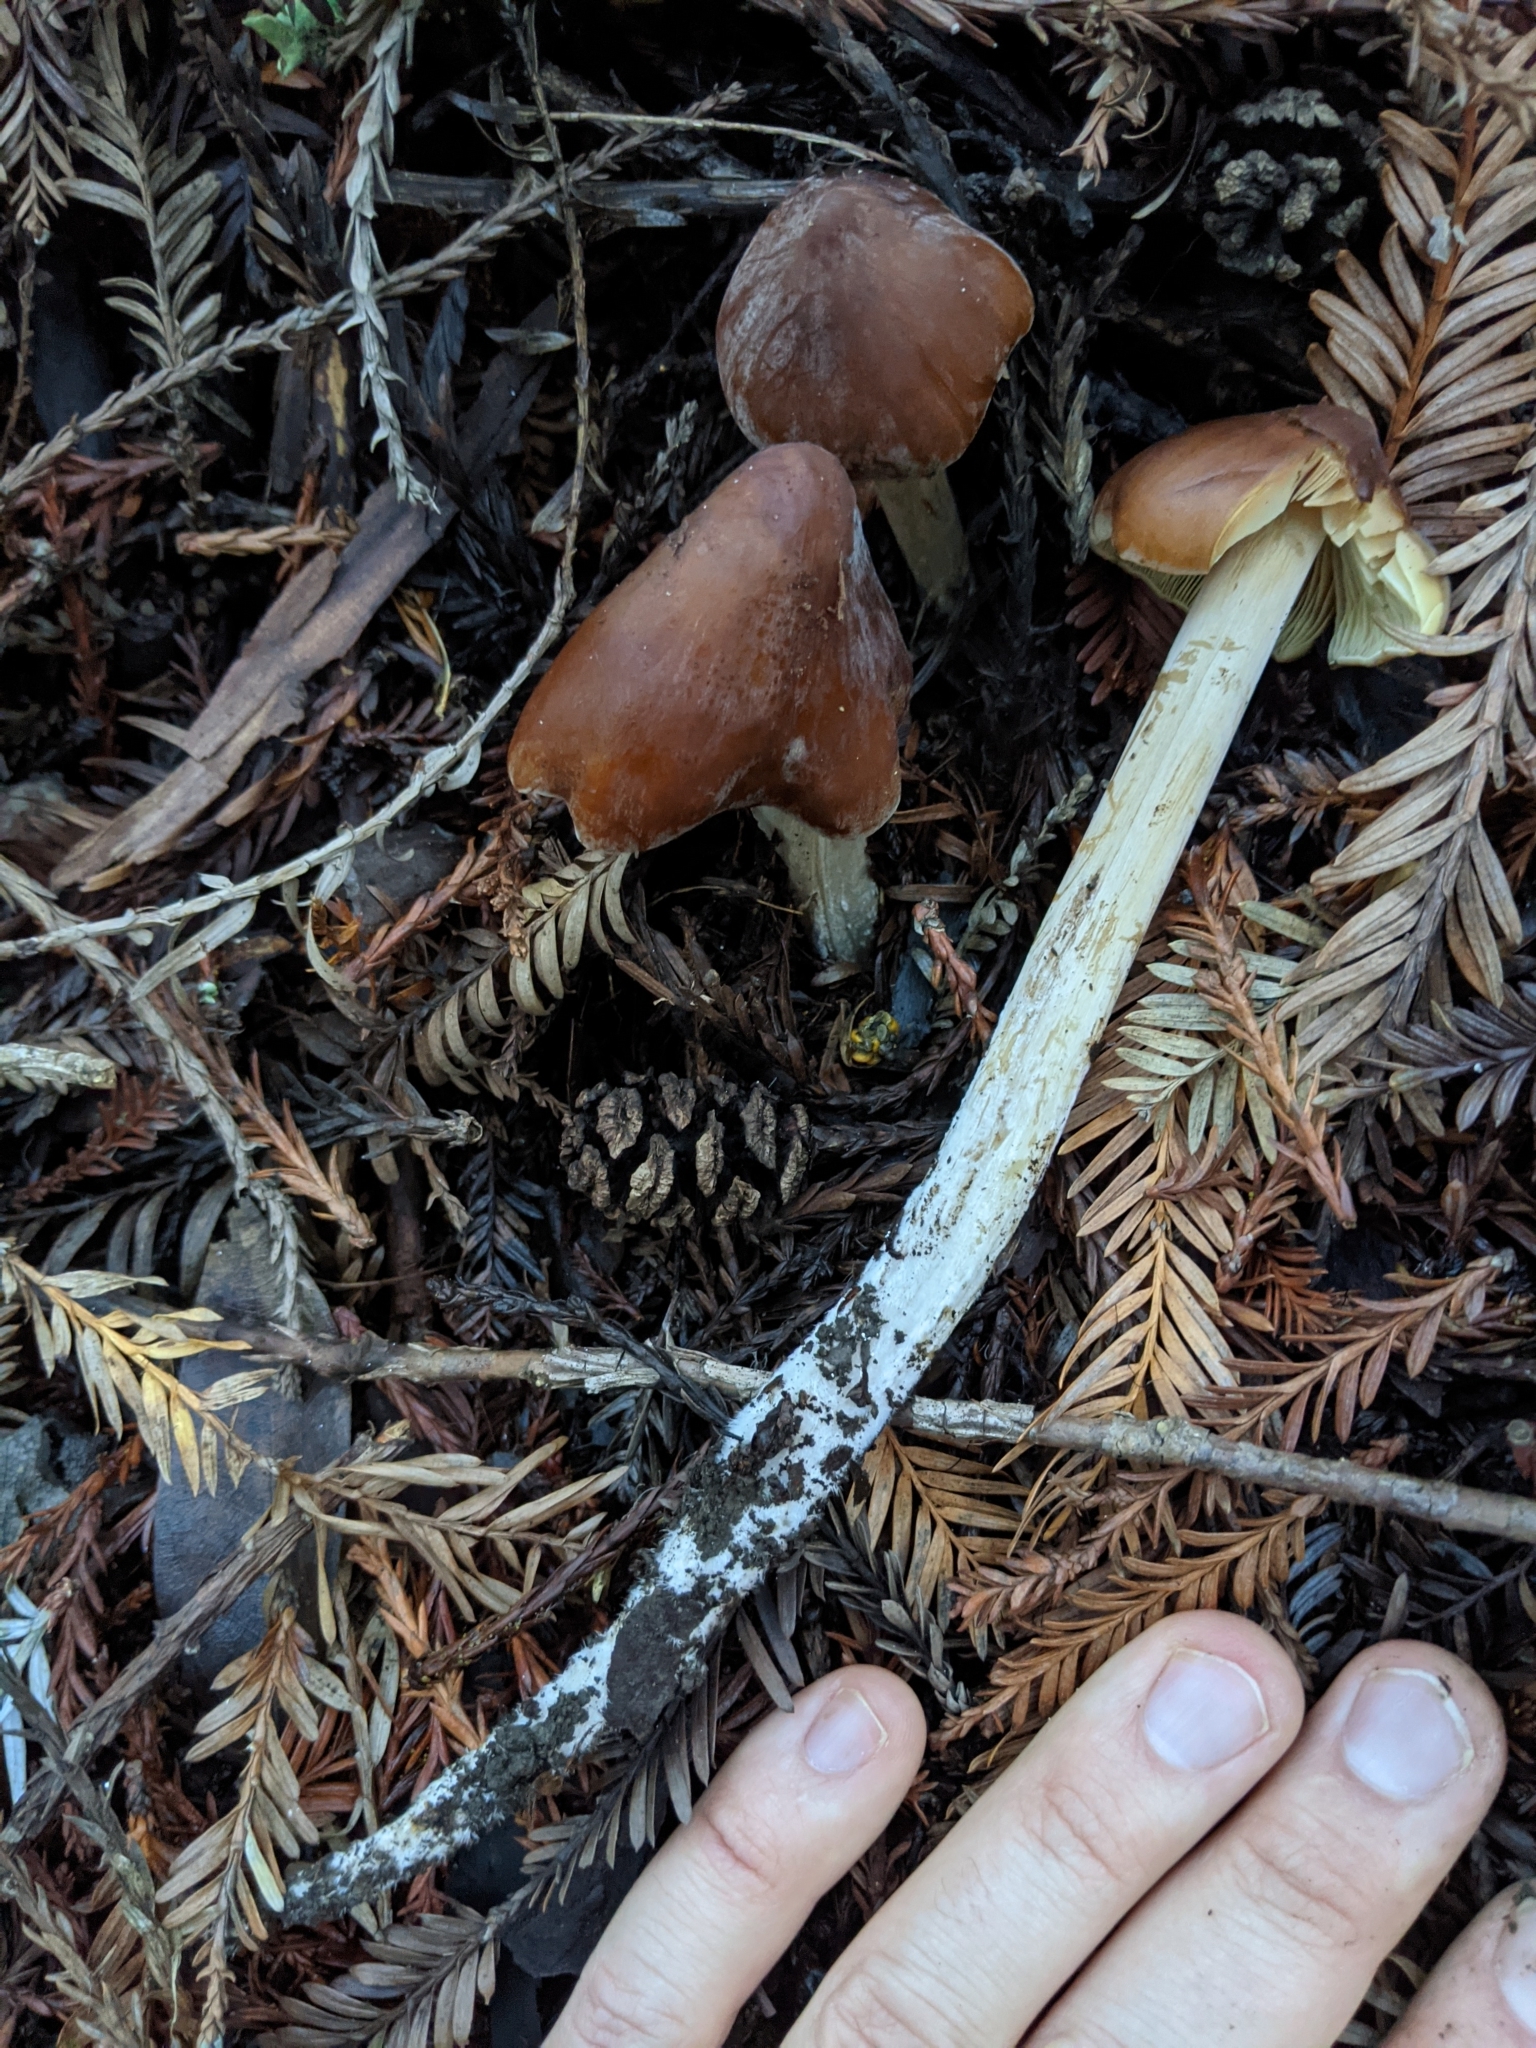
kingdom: Fungi
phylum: Basidiomycota
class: Agaricomycetes
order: Agaricales
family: Tricholomataceae
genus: Caulorhiza
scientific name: Caulorhiza umbonata
